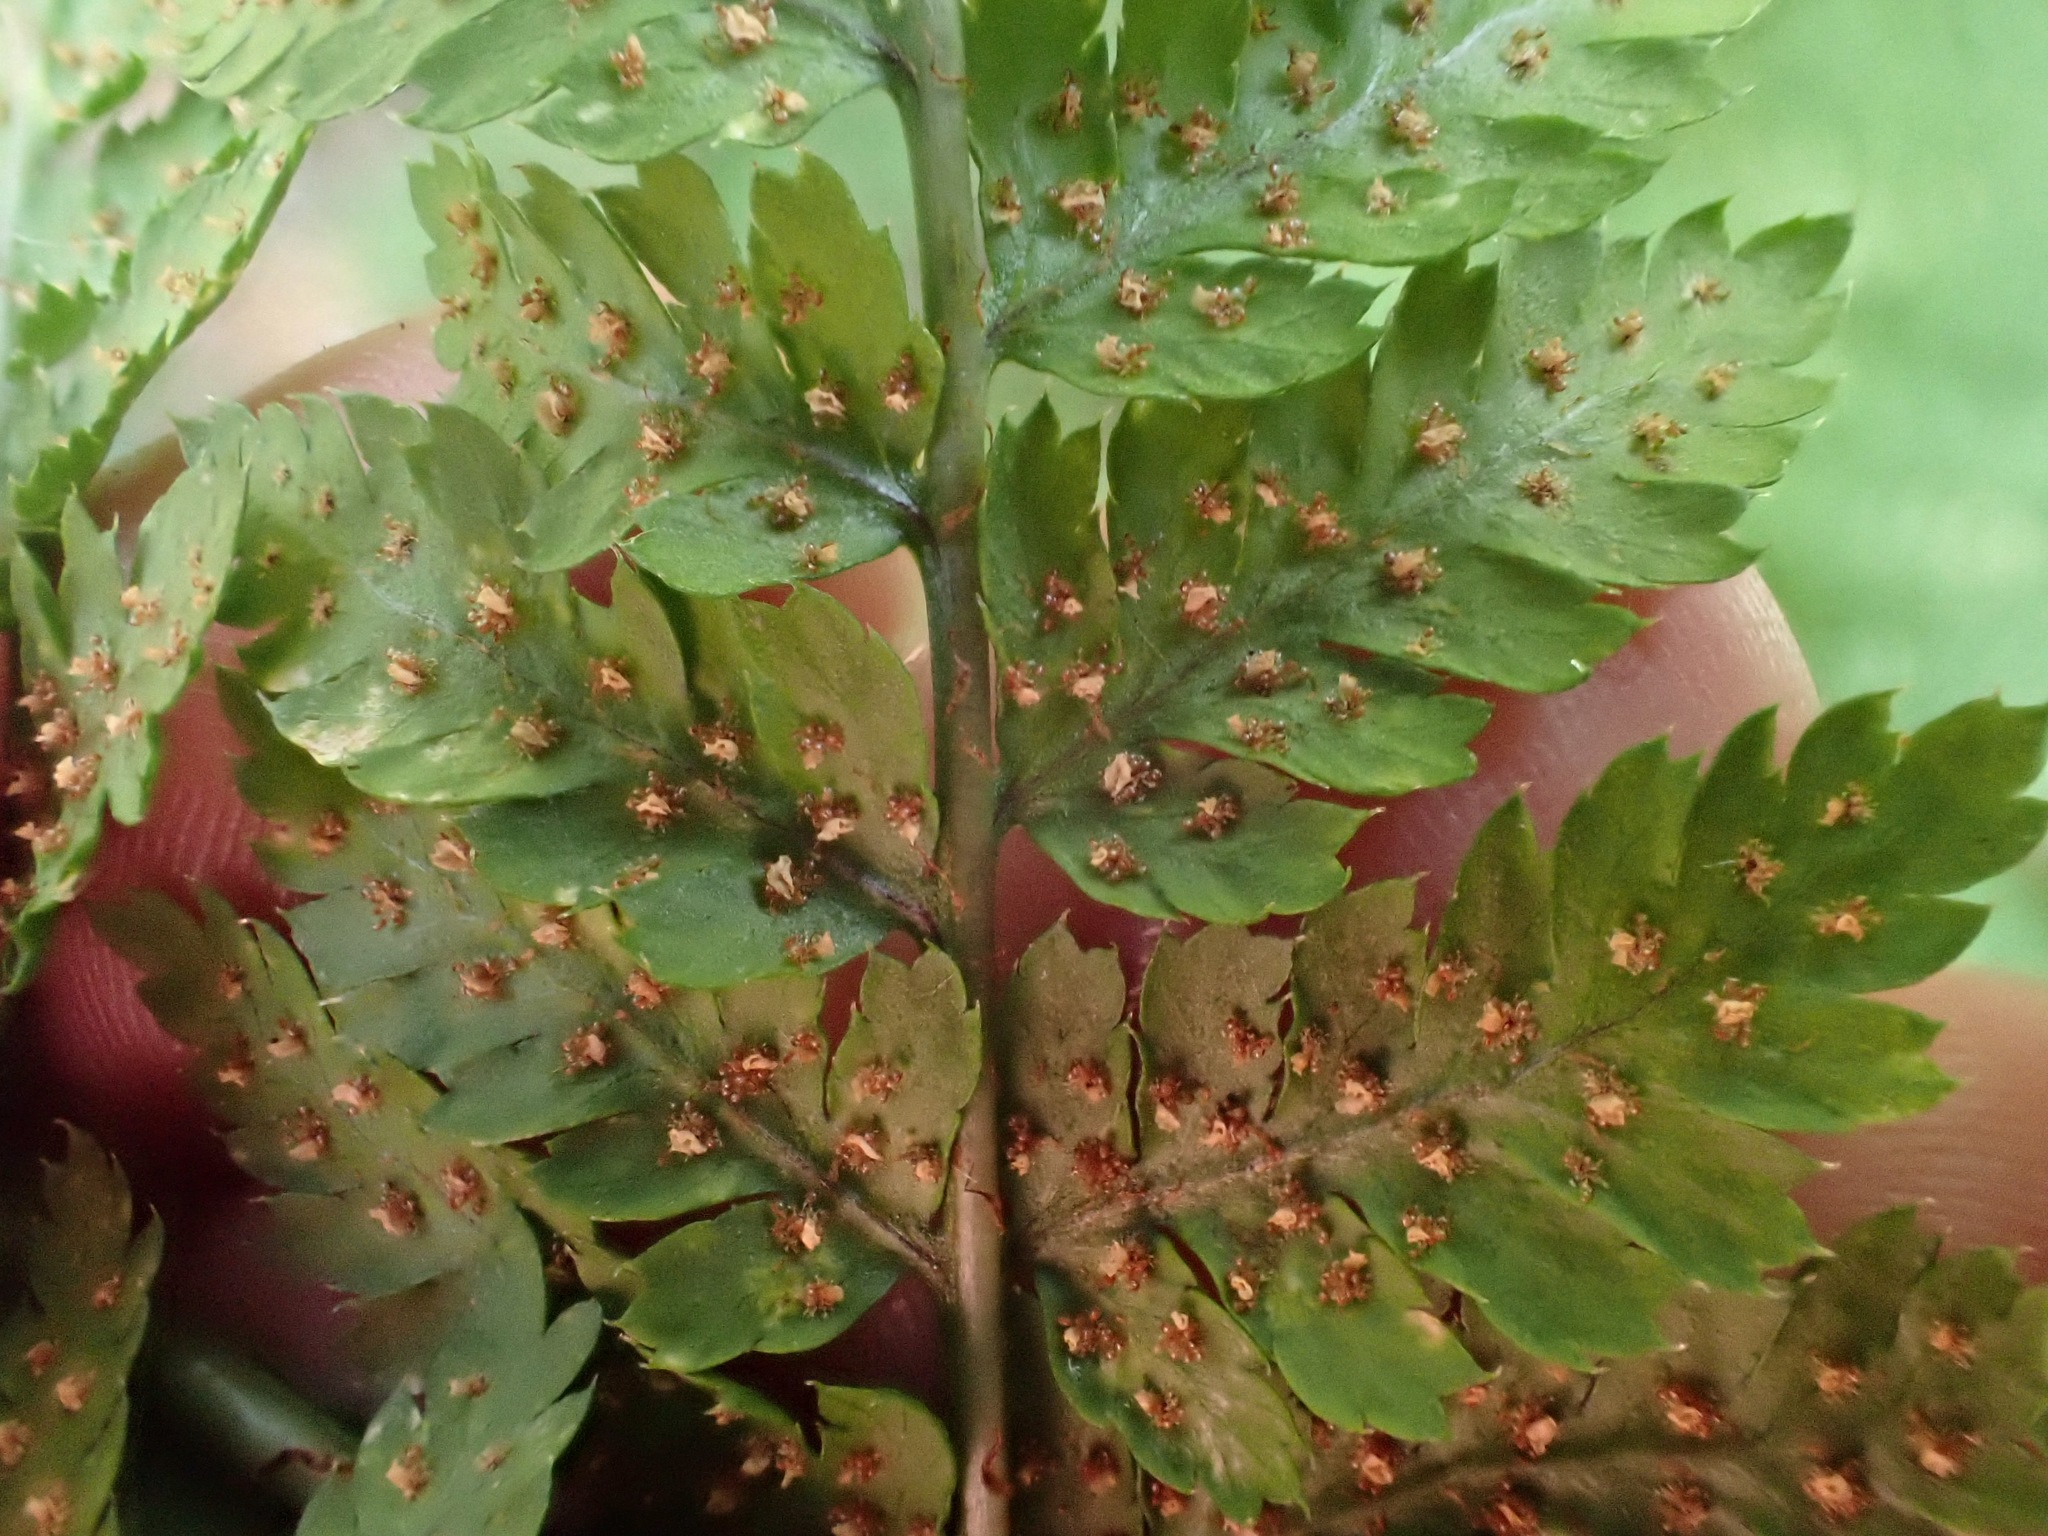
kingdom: Plantae
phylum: Tracheophyta
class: Polypodiopsida
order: Polypodiales
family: Dryopteridaceae
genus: Dryopteris
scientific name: Dryopteris dilatata
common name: Broad buckler-fern
